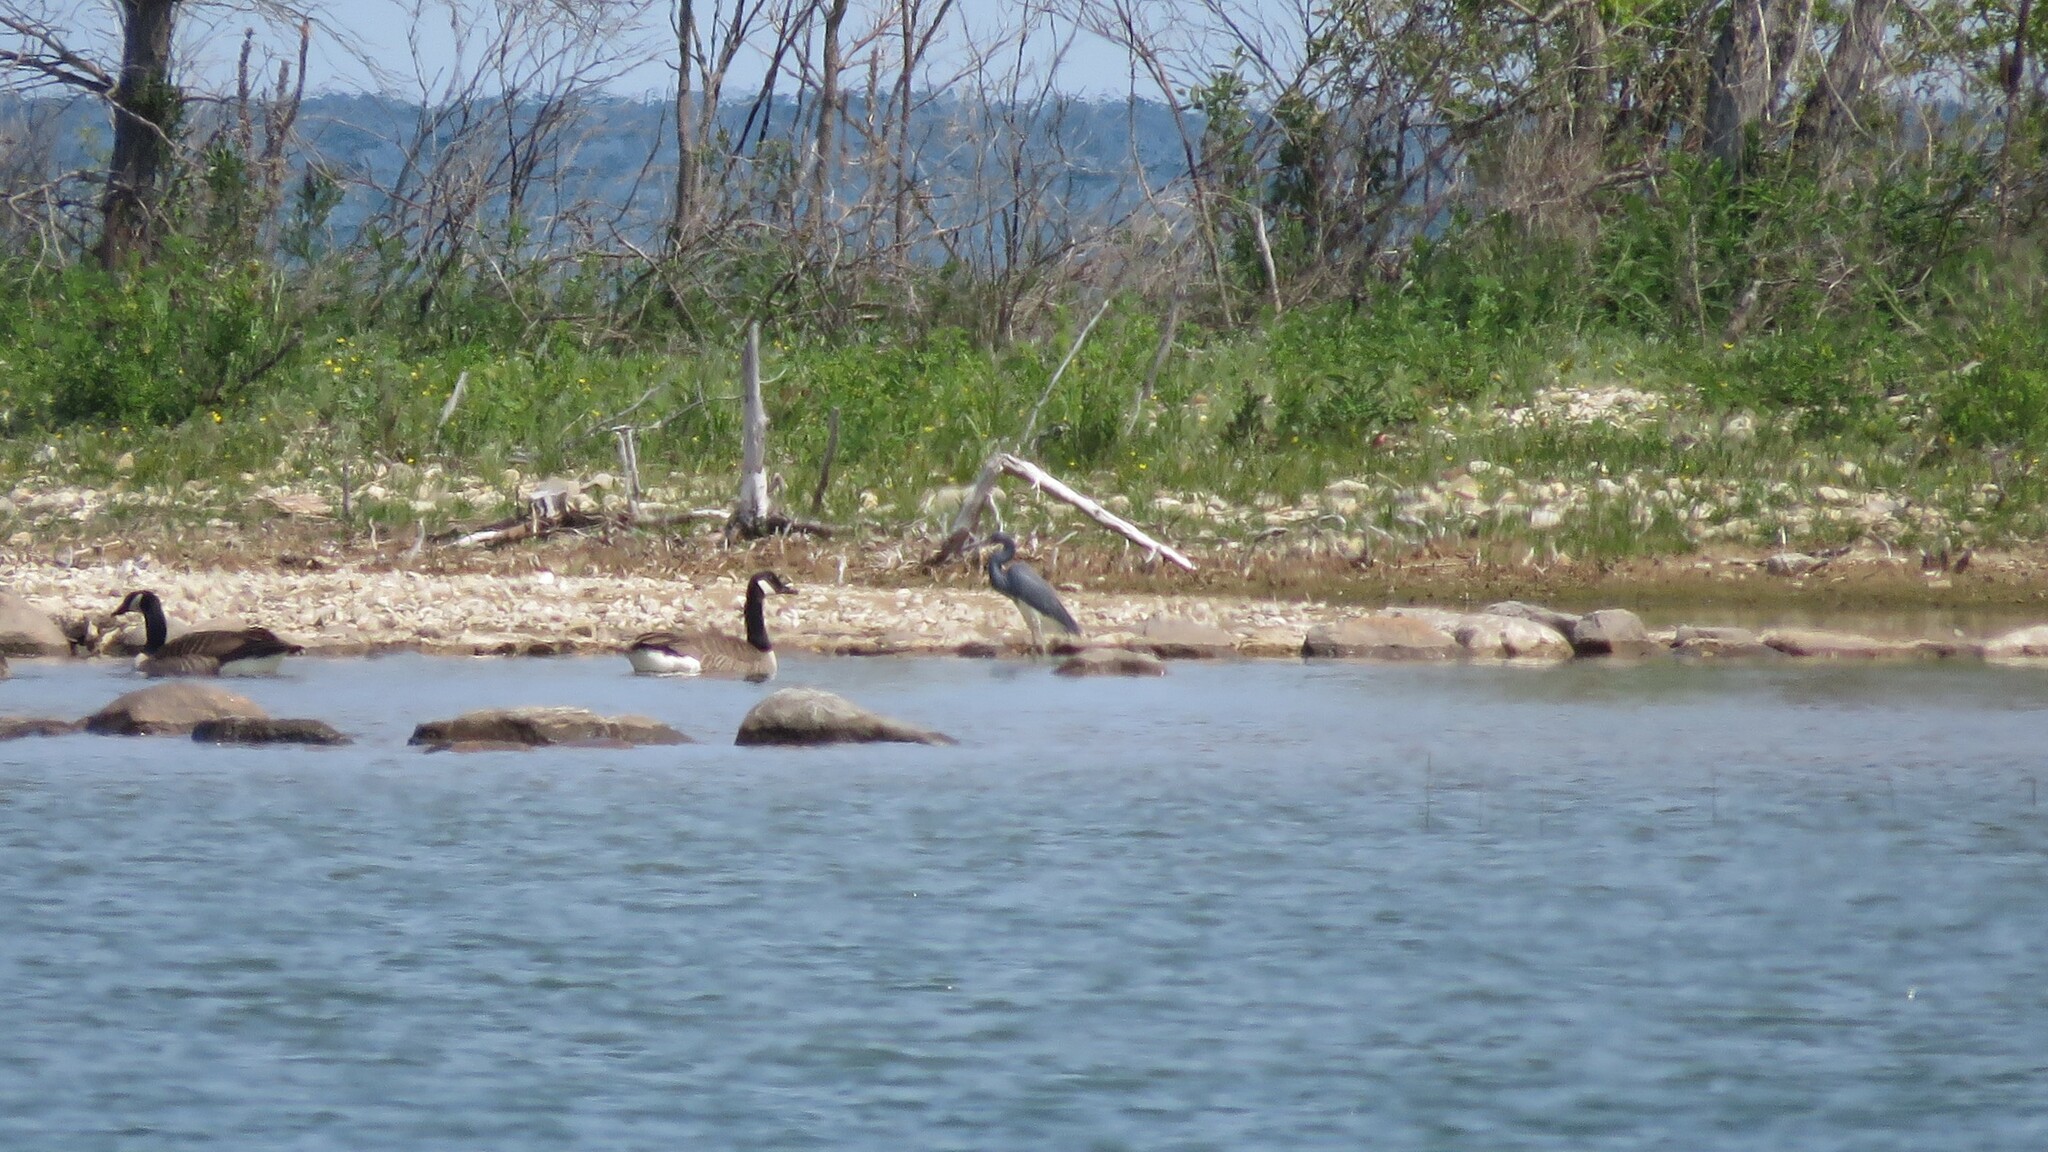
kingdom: Animalia
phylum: Chordata
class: Aves
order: Pelecaniformes
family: Ardeidae
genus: Egretta
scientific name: Egretta tricolor
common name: Tricolored heron
